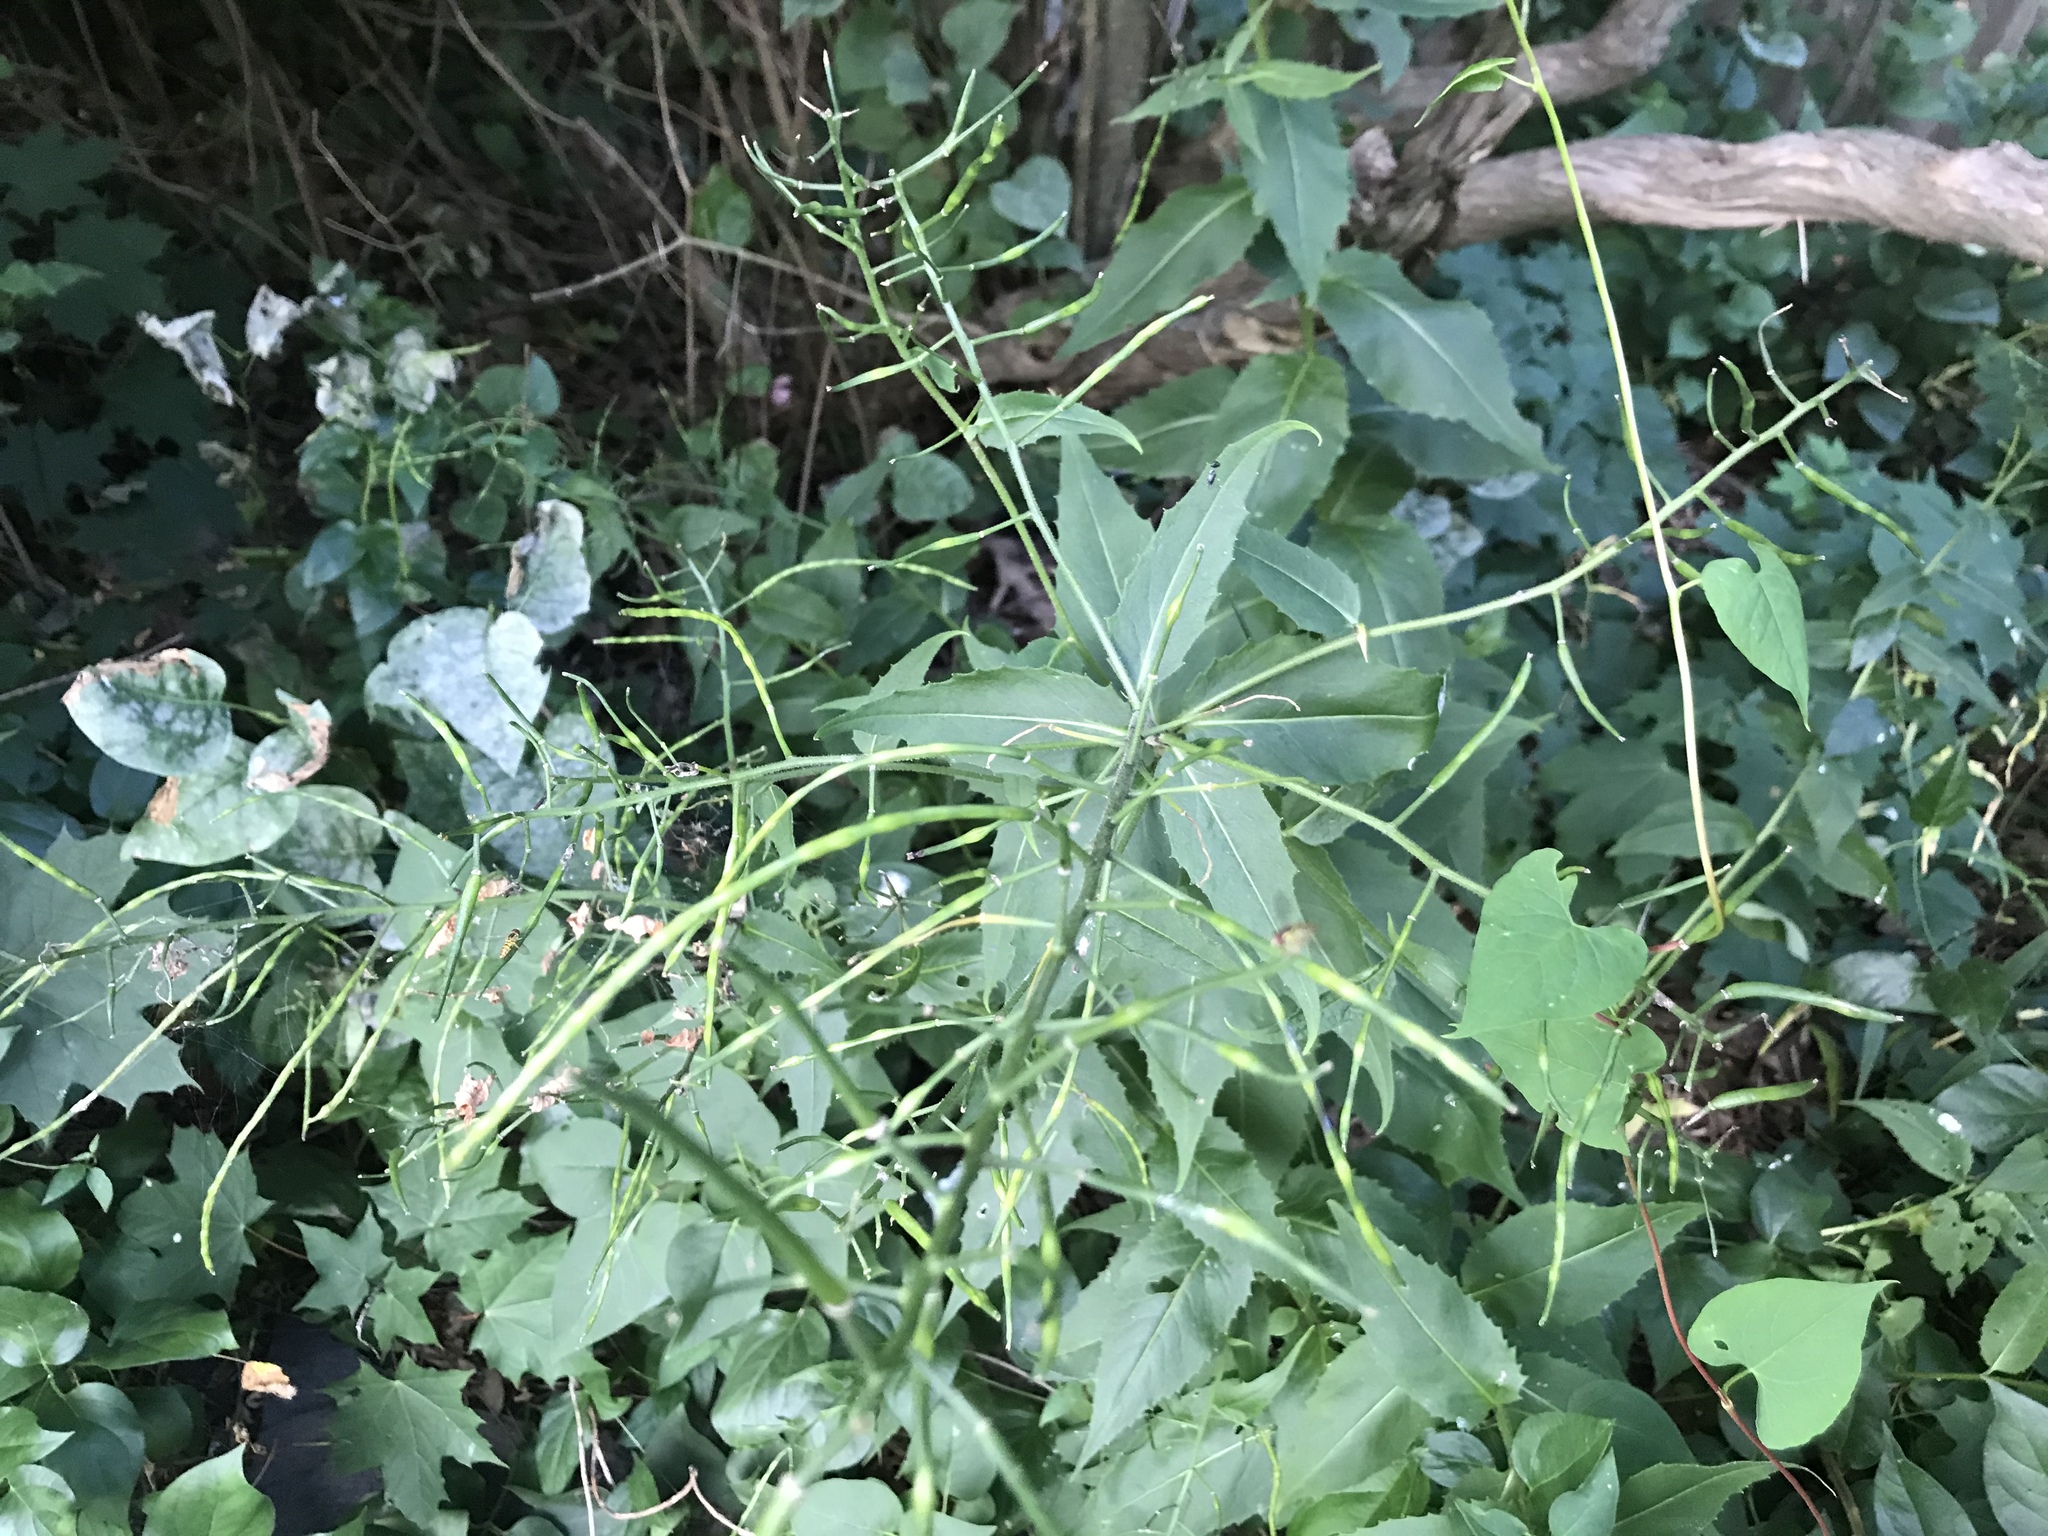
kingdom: Plantae
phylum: Tracheophyta
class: Magnoliopsida
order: Brassicales
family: Brassicaceae
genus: Hesperis
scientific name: Hesperis matronalis
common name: Dame's-violet
